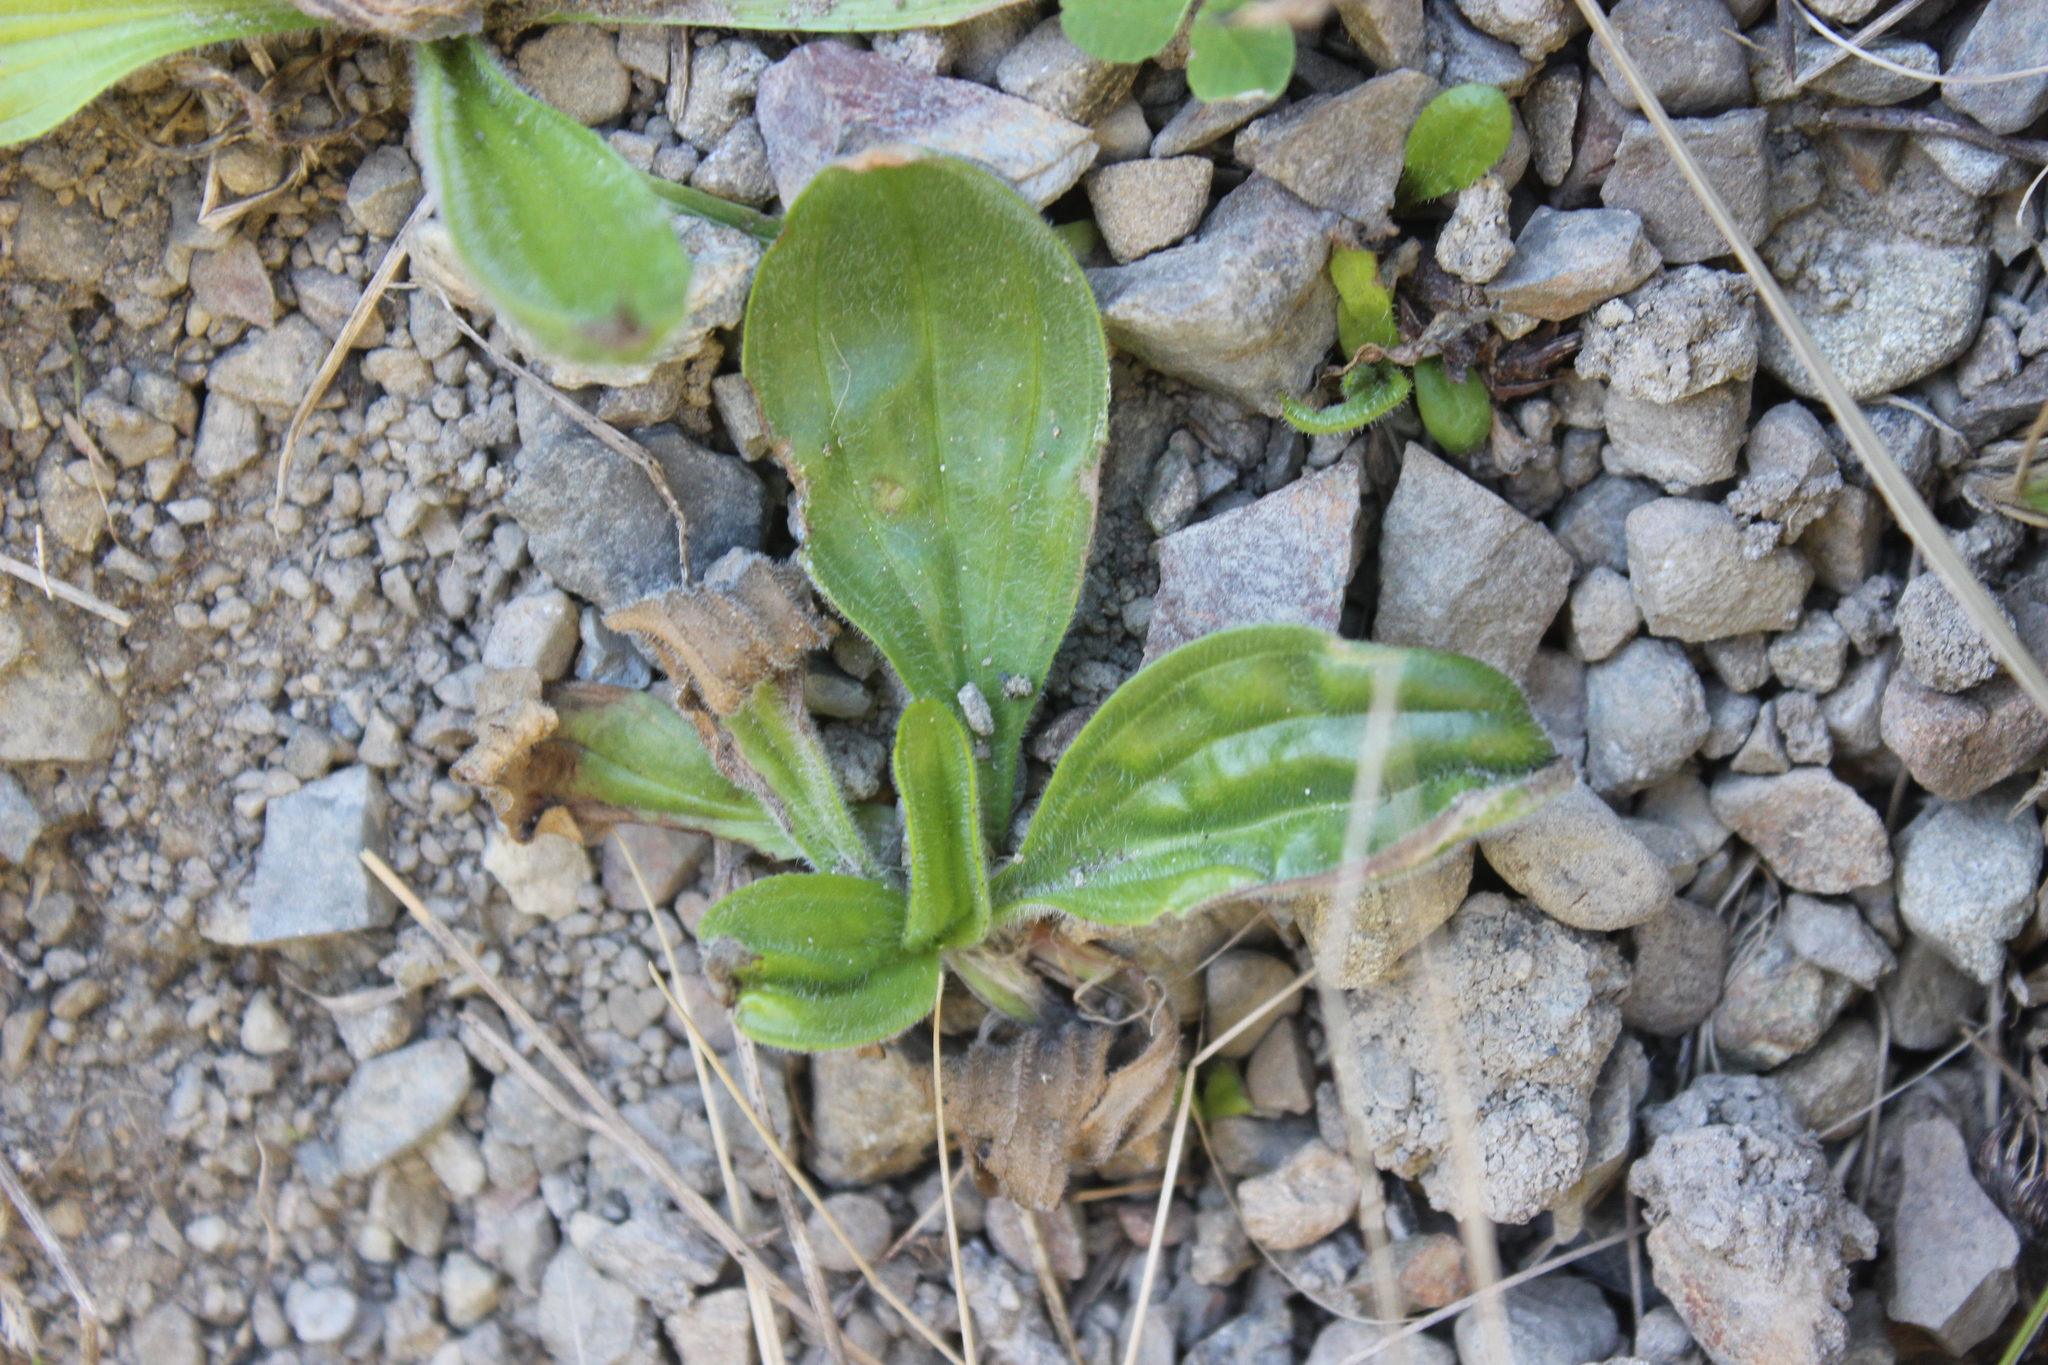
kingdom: Plantae
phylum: Tracheophyta
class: Magnoliopsida
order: Lamiales
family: Plantaginaceae
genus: Plantago
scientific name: Plantago major
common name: Common plantain
